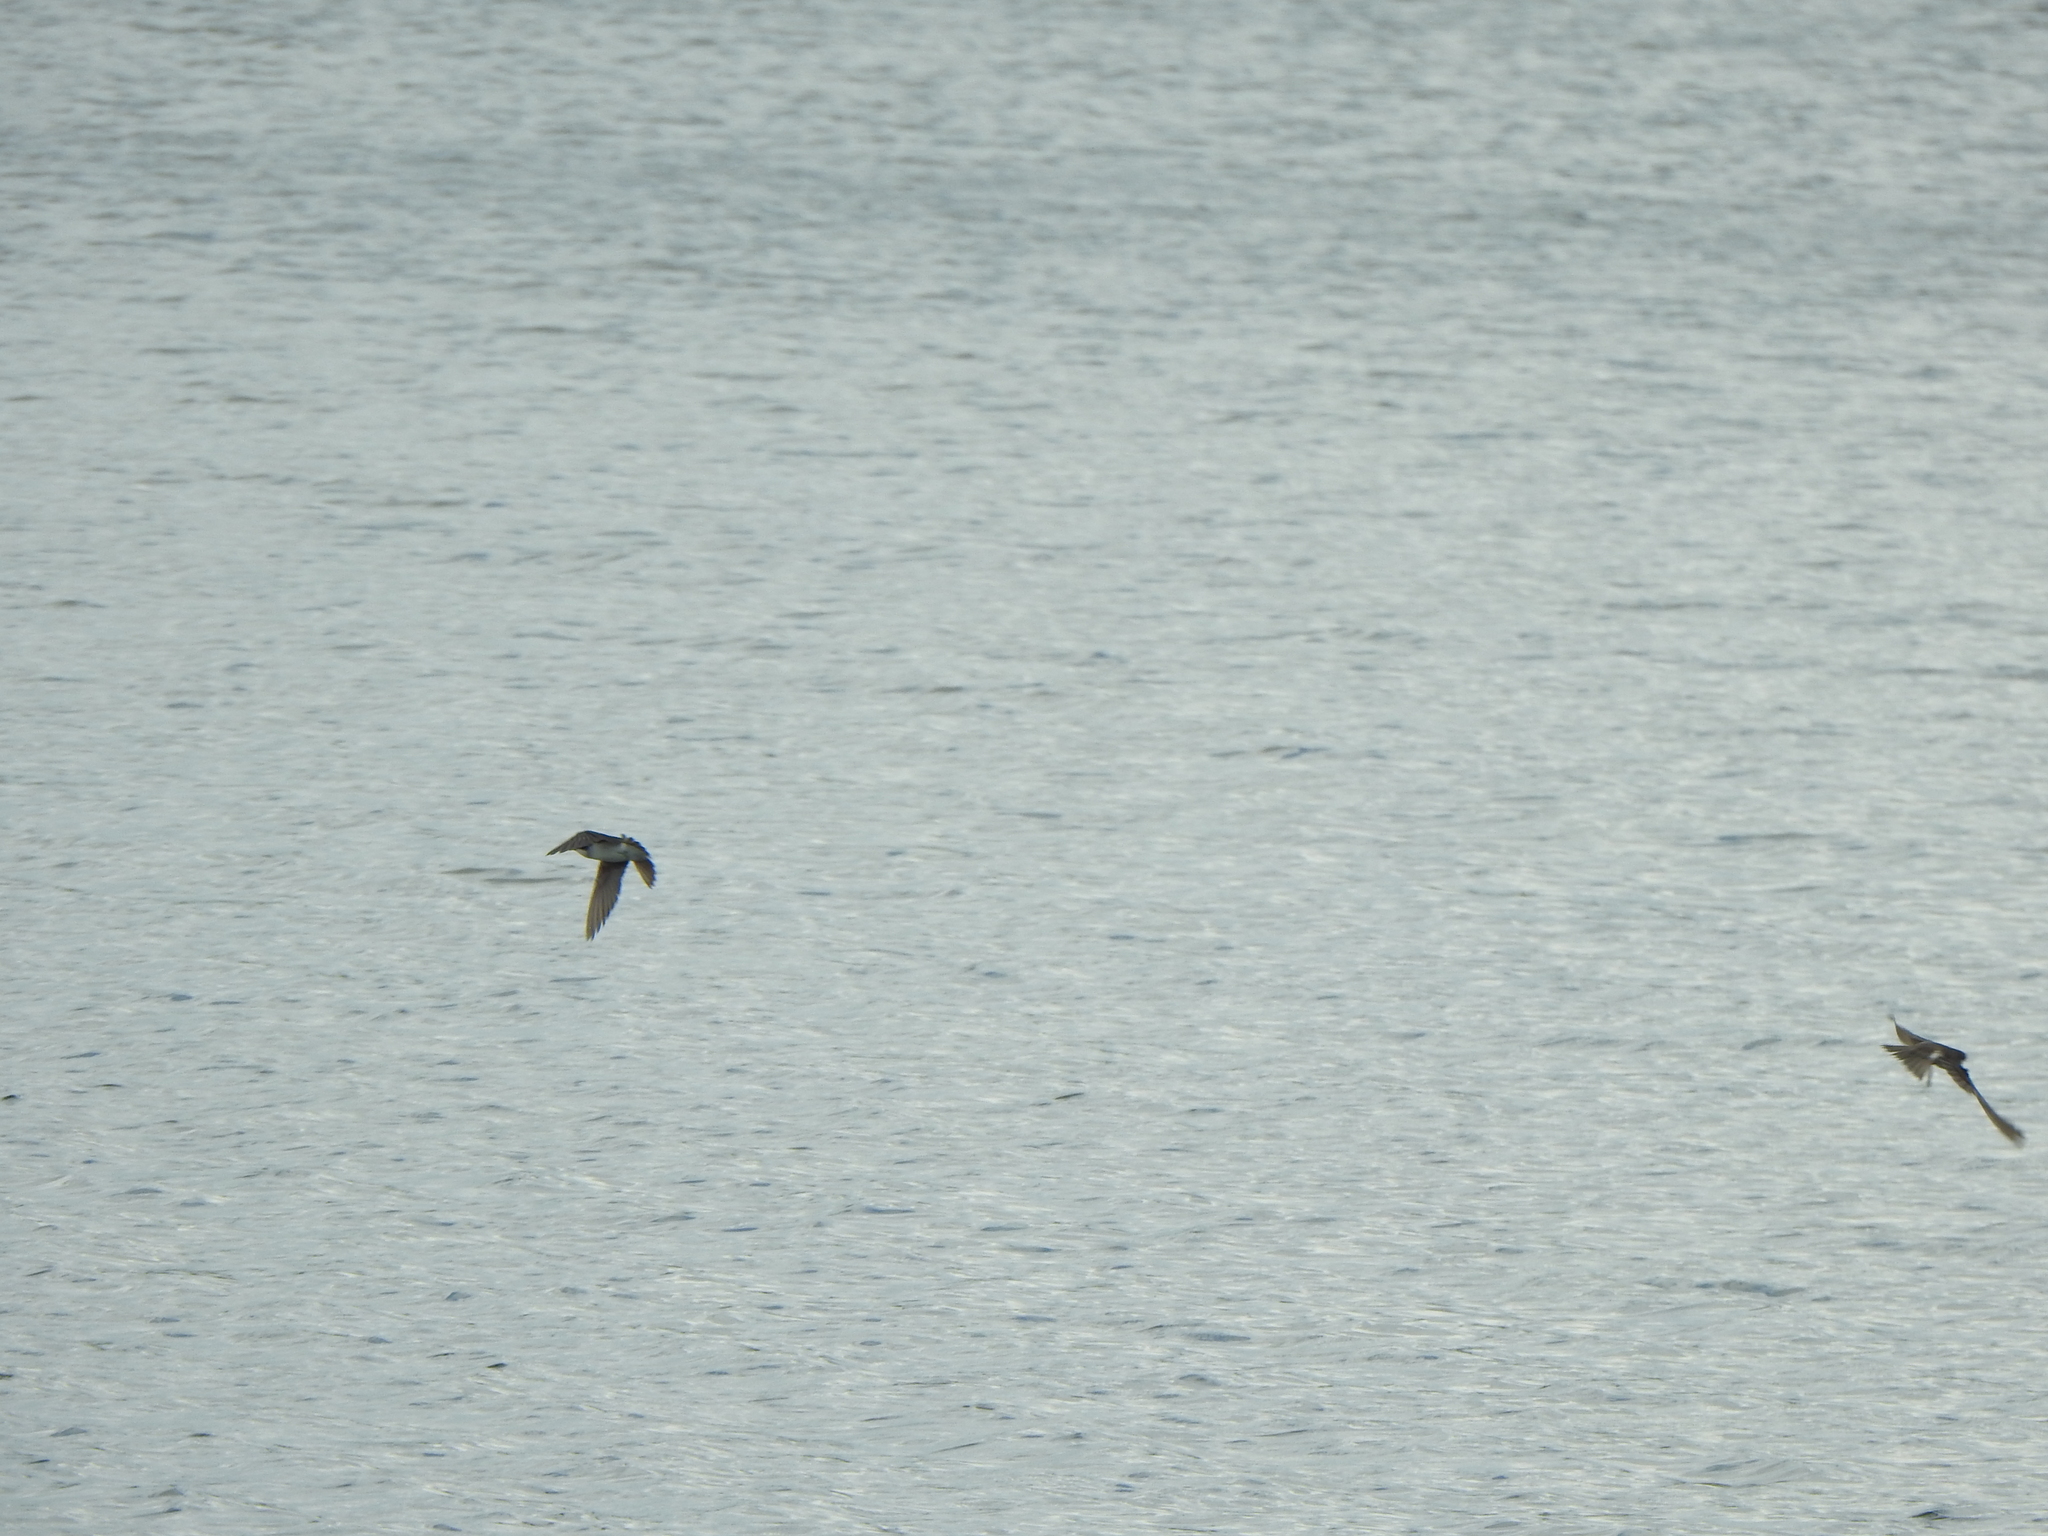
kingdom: Animalia
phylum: Chordata
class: Aves
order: Passeriformes
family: Hirundinidae
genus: Tachycineta
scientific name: Tachycineta bicolor
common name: Tree swallow
